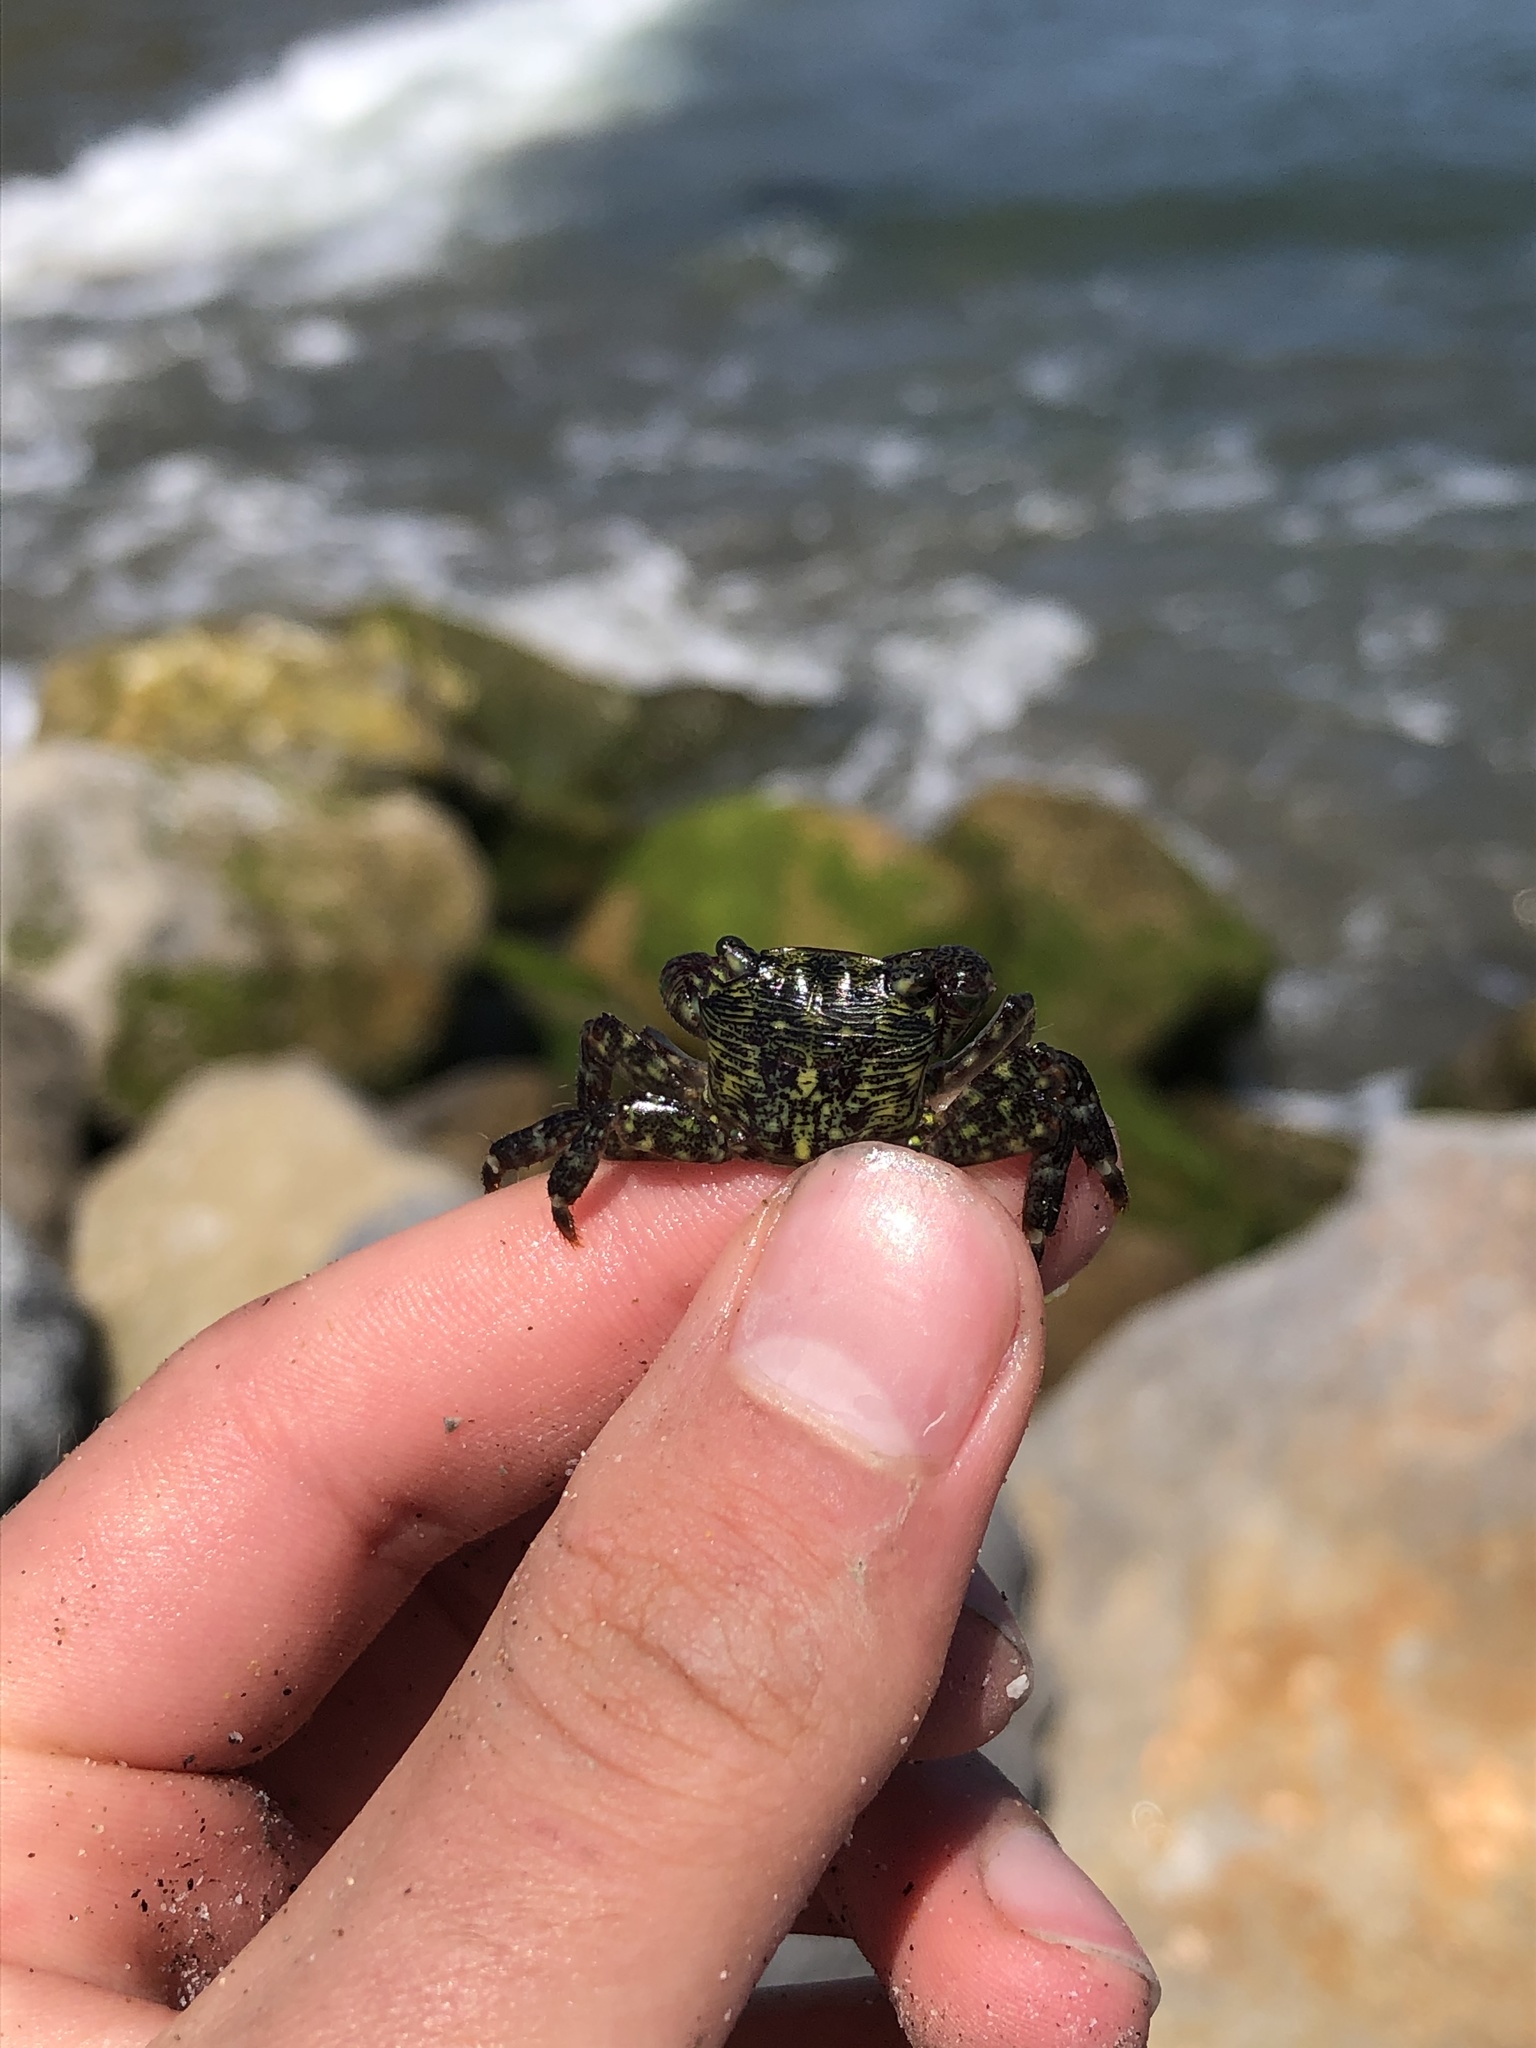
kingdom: Animalia
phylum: Arthropoda
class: Malacostraca
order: Decapoda
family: Grapsidae
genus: Pachygrapsus
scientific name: Pachygrapsus crassipes
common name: Striped shore crab
